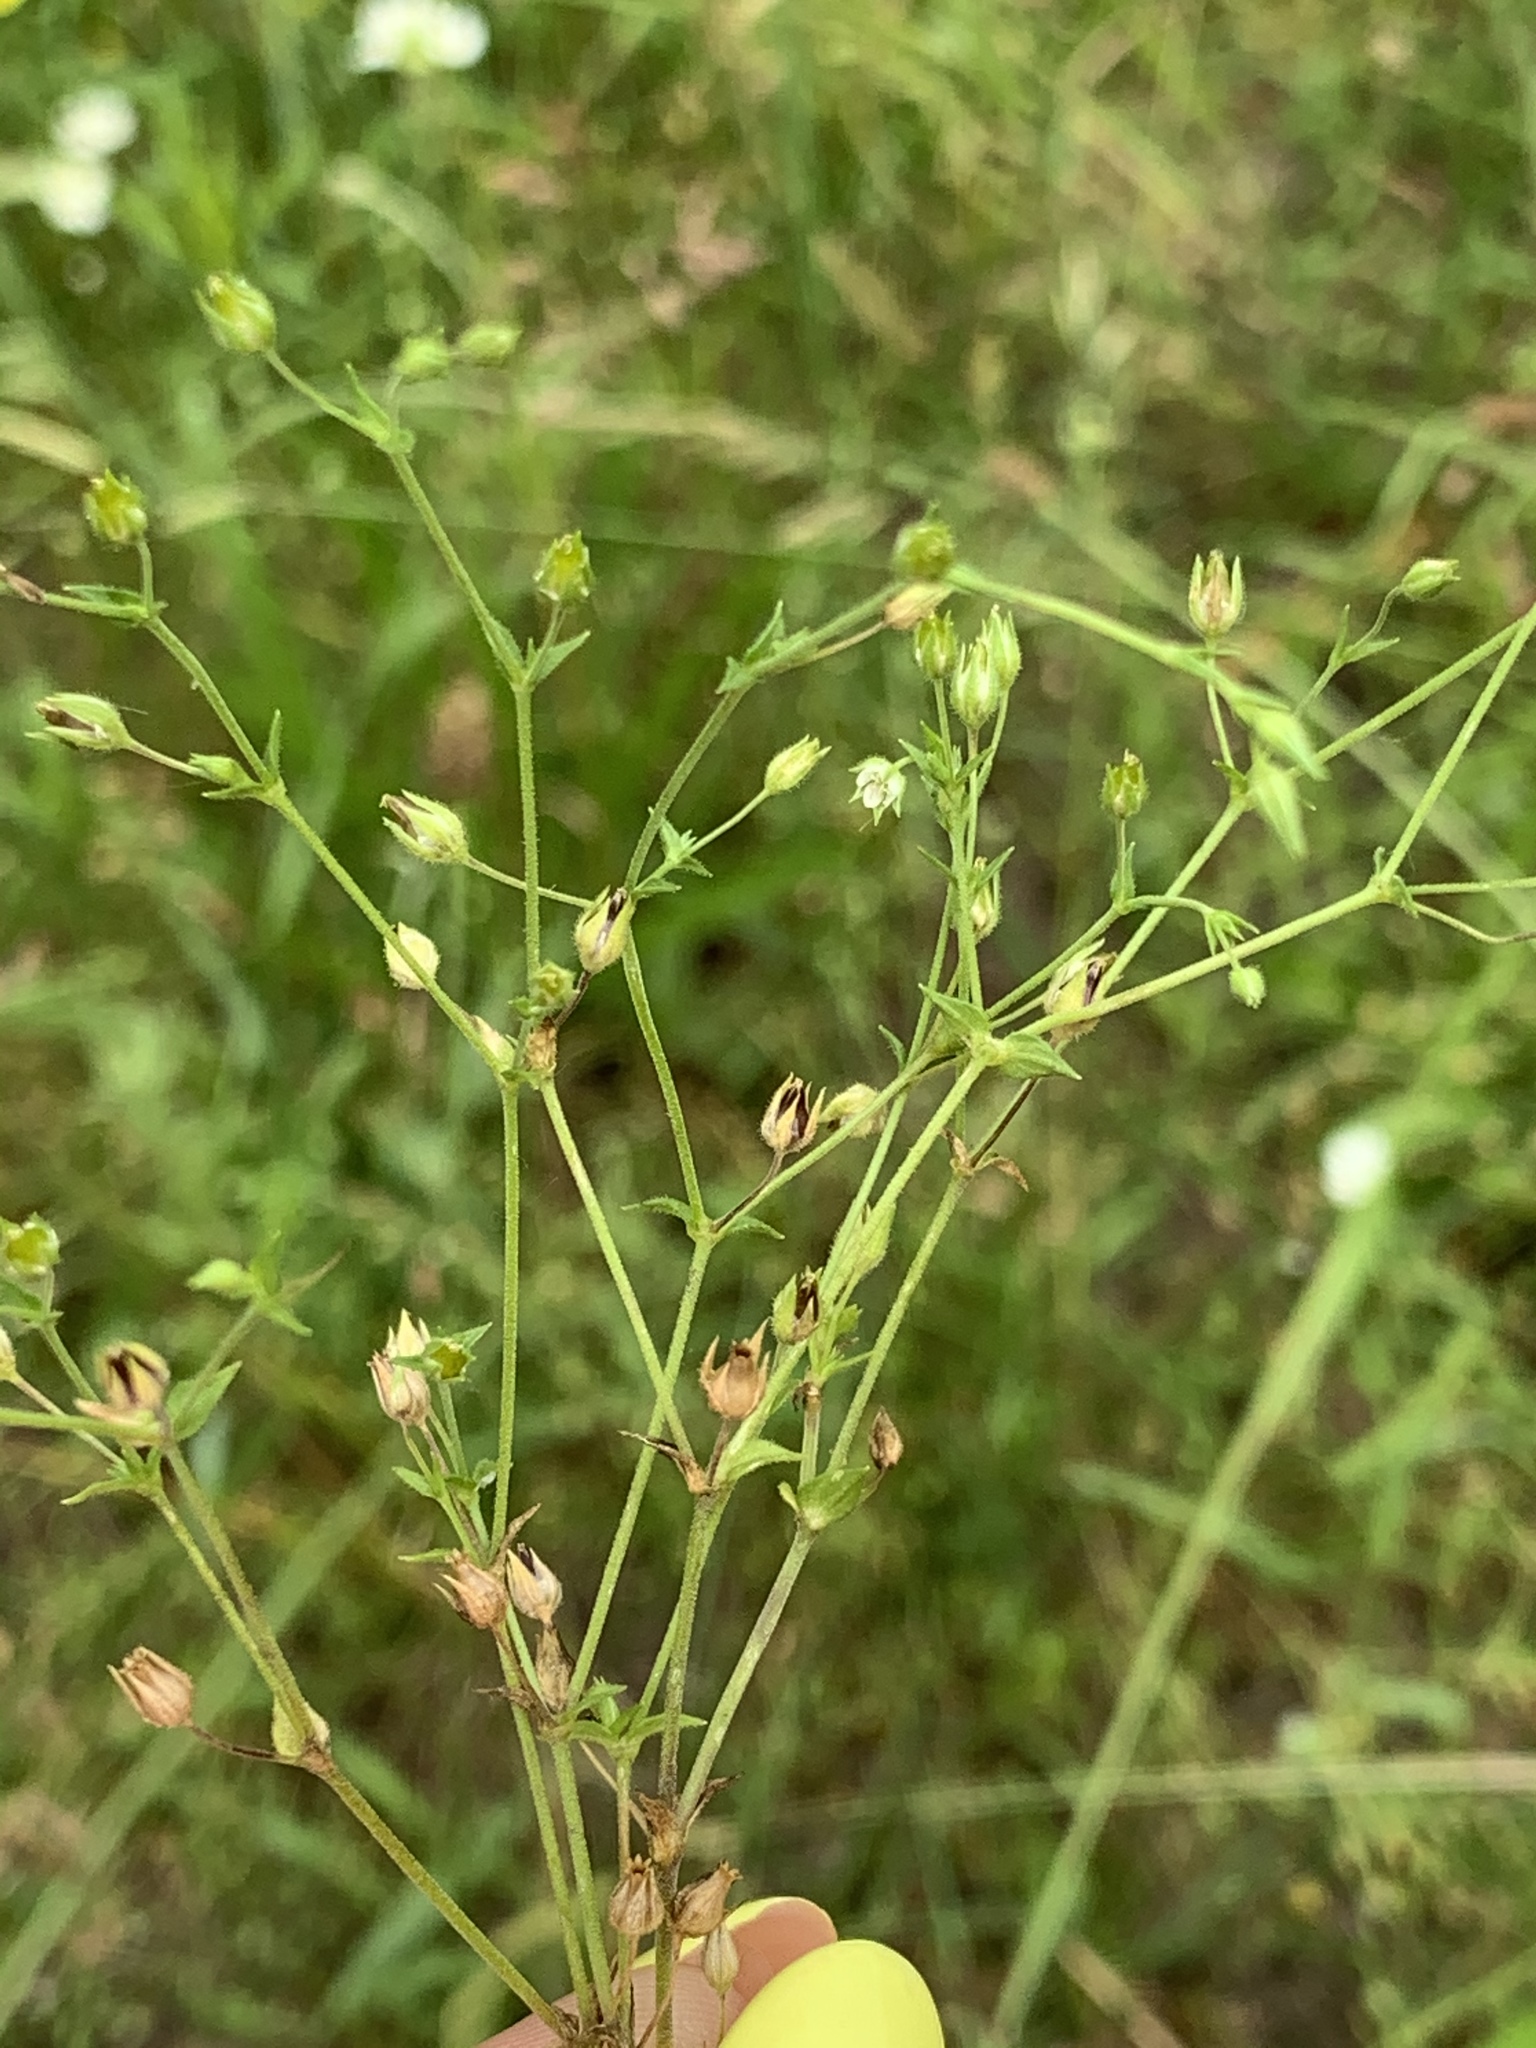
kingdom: Plantae
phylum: Tracheophyta
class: Magnoliopsida
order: Caryophyllales
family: Caryophyllaceae
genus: Arenaria
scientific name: Arenaria serpyllifolia
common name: Thyme-leaved sandwort
